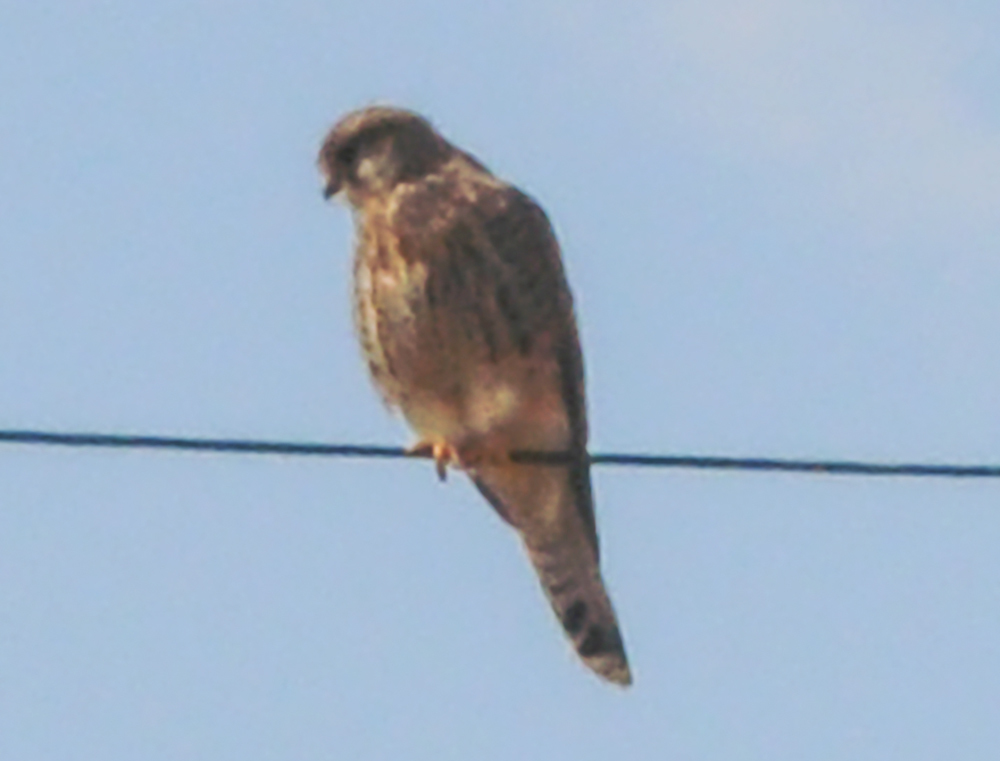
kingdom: Animalia
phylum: Chordata
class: Aves
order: Falconiformes
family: Falconidae
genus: Falco
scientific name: Falco tinnunculus
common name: Common kestrel
